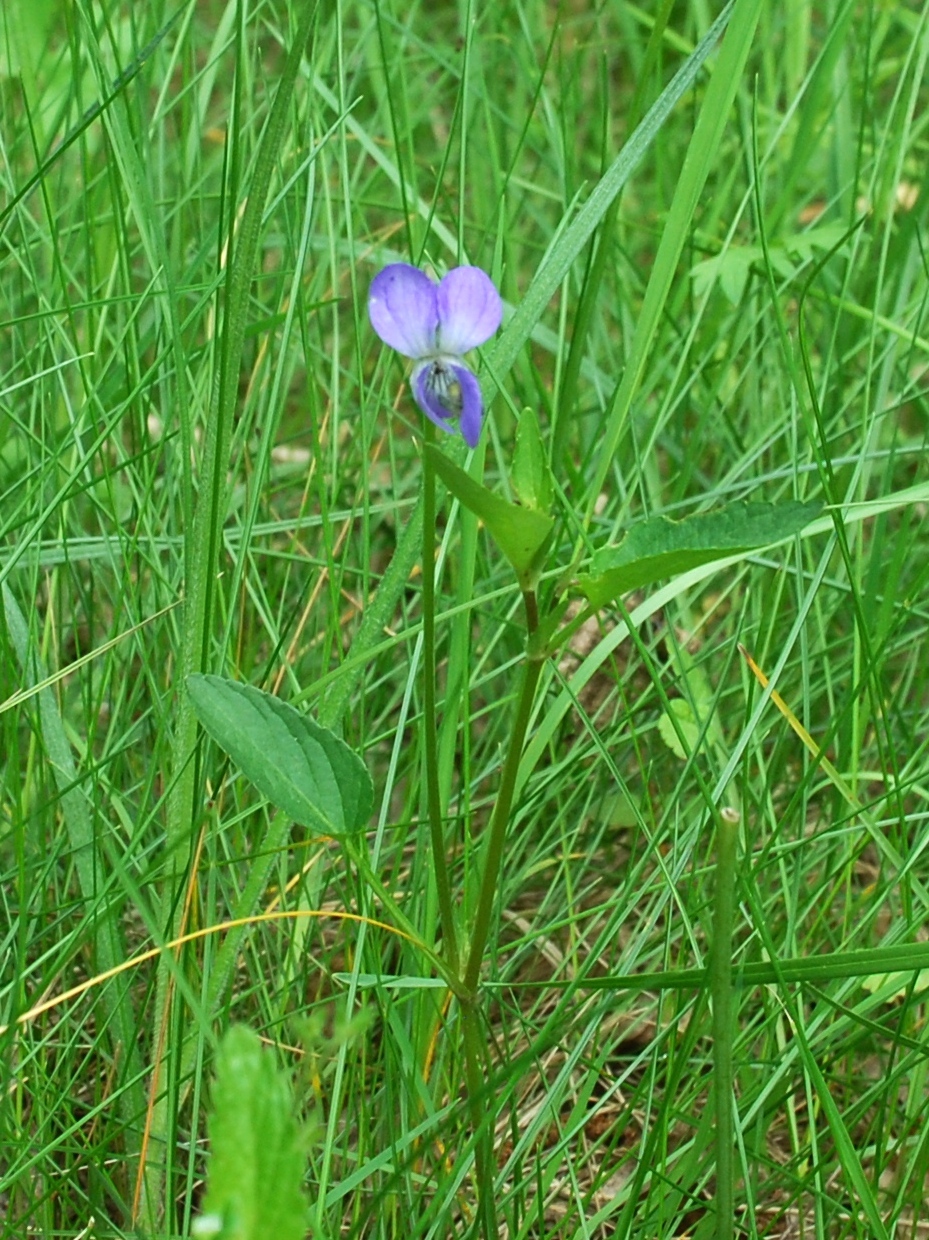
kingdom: Plantae
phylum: Tracheophyta
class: Magnoliopsida
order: Malpighiales
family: Violaceae
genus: Viola
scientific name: Viola
